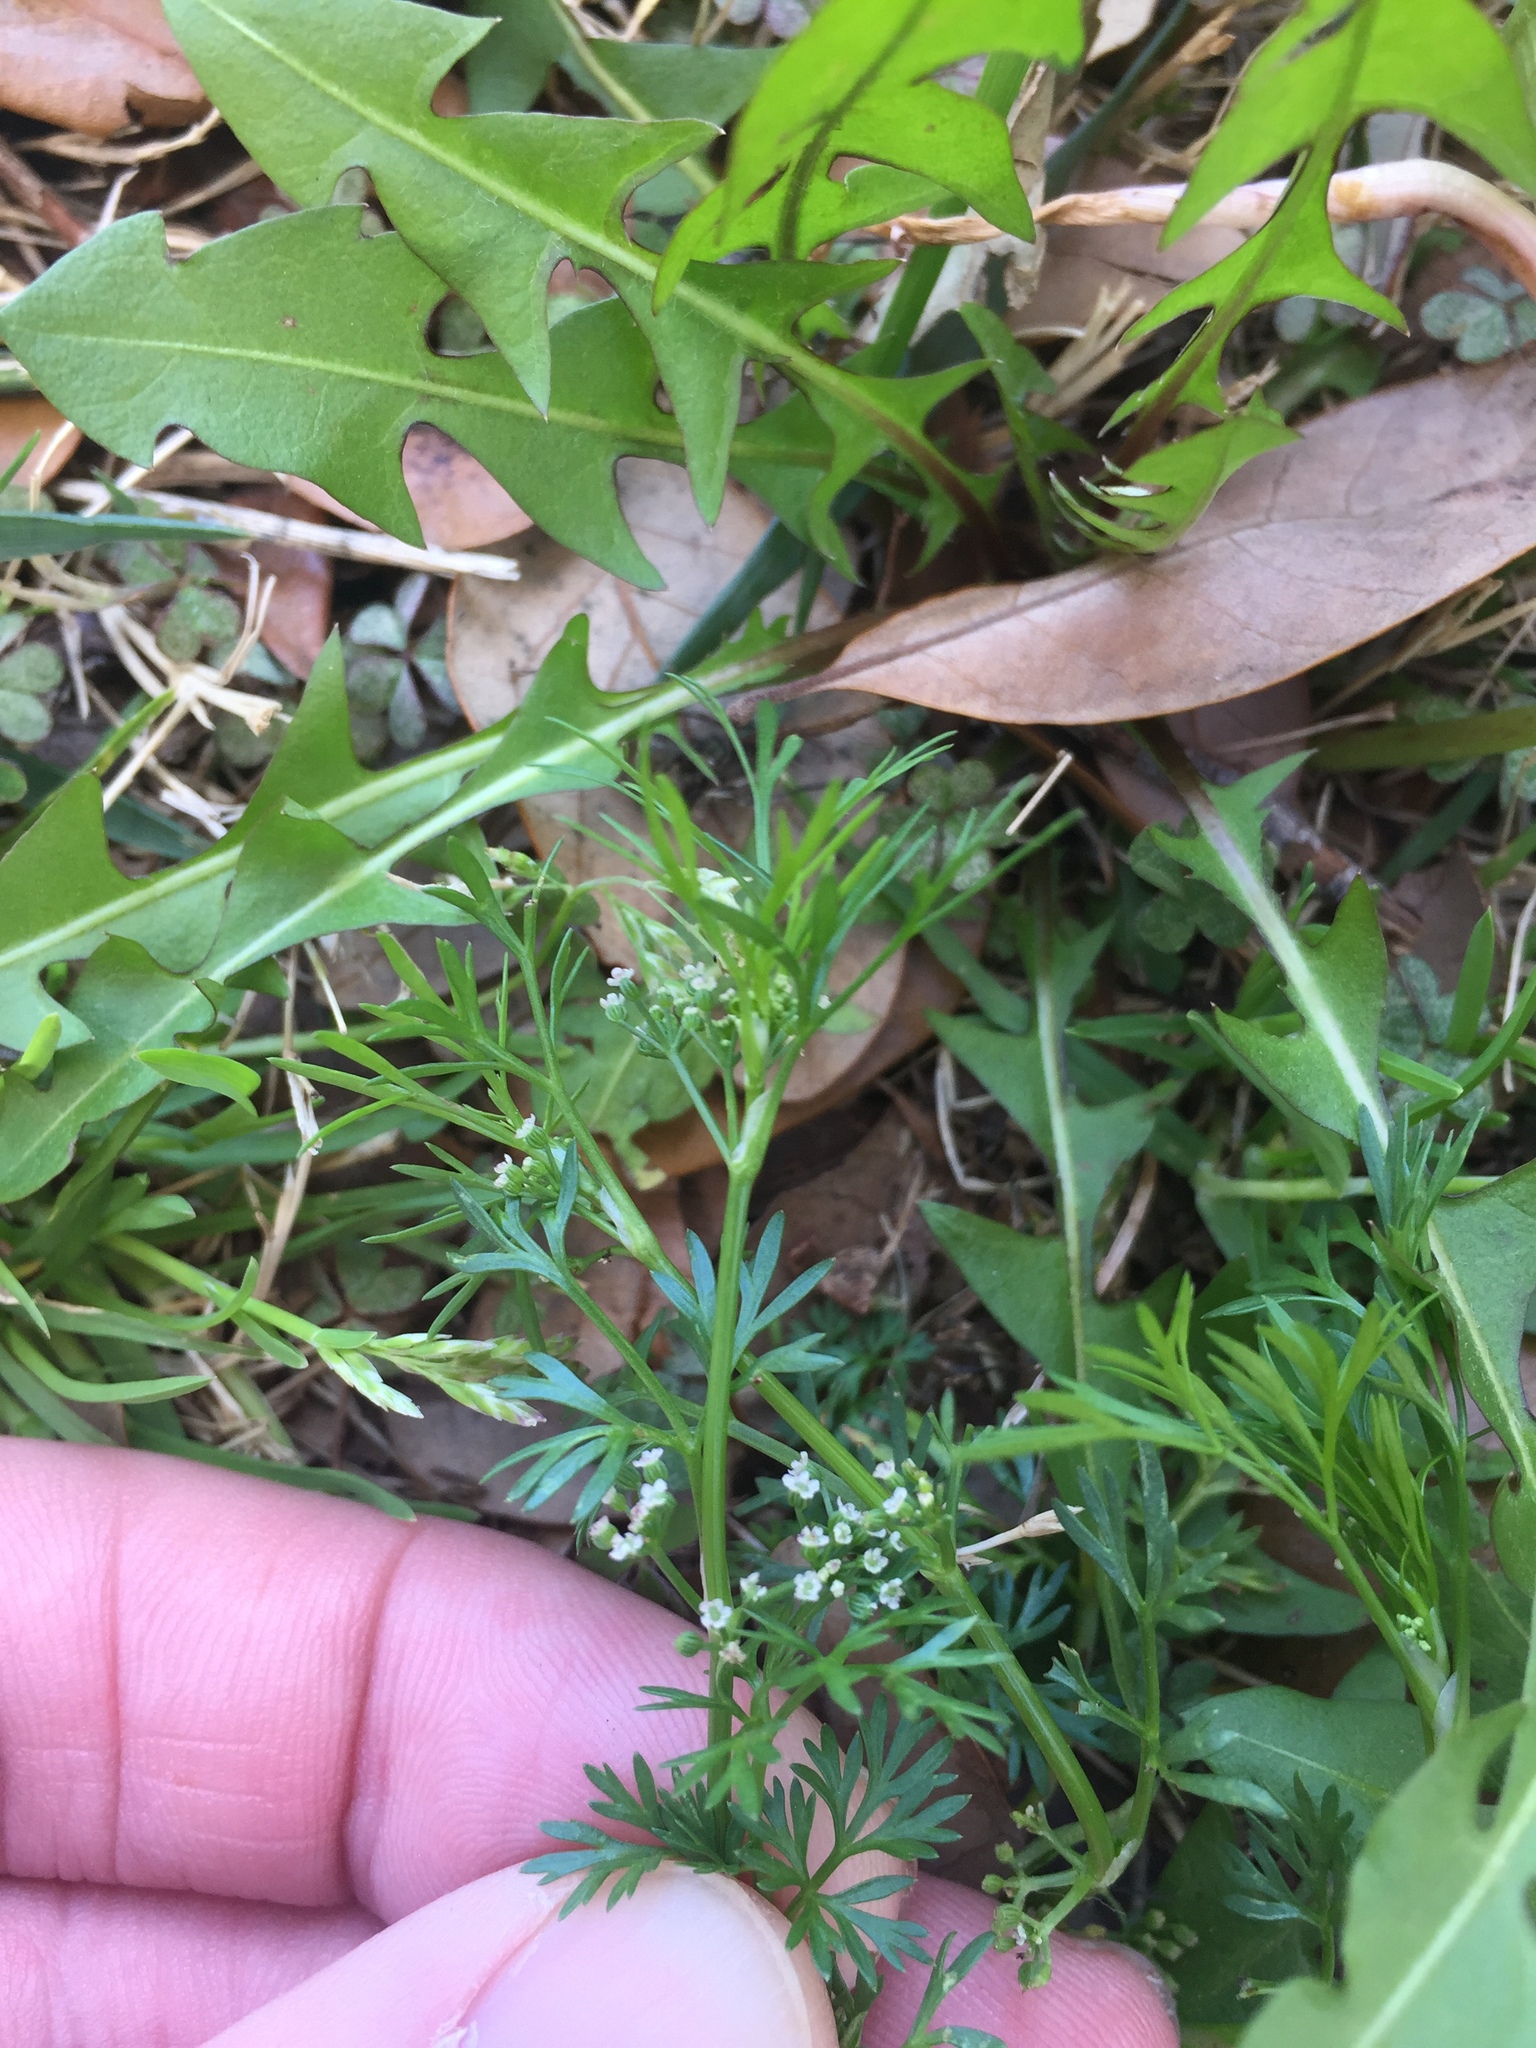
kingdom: Plantae
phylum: Tracheophyta
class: Magnoliopsida
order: Apiales
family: Apiaceae
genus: Cyclospermum
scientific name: Cyclospermum leptophyllum
